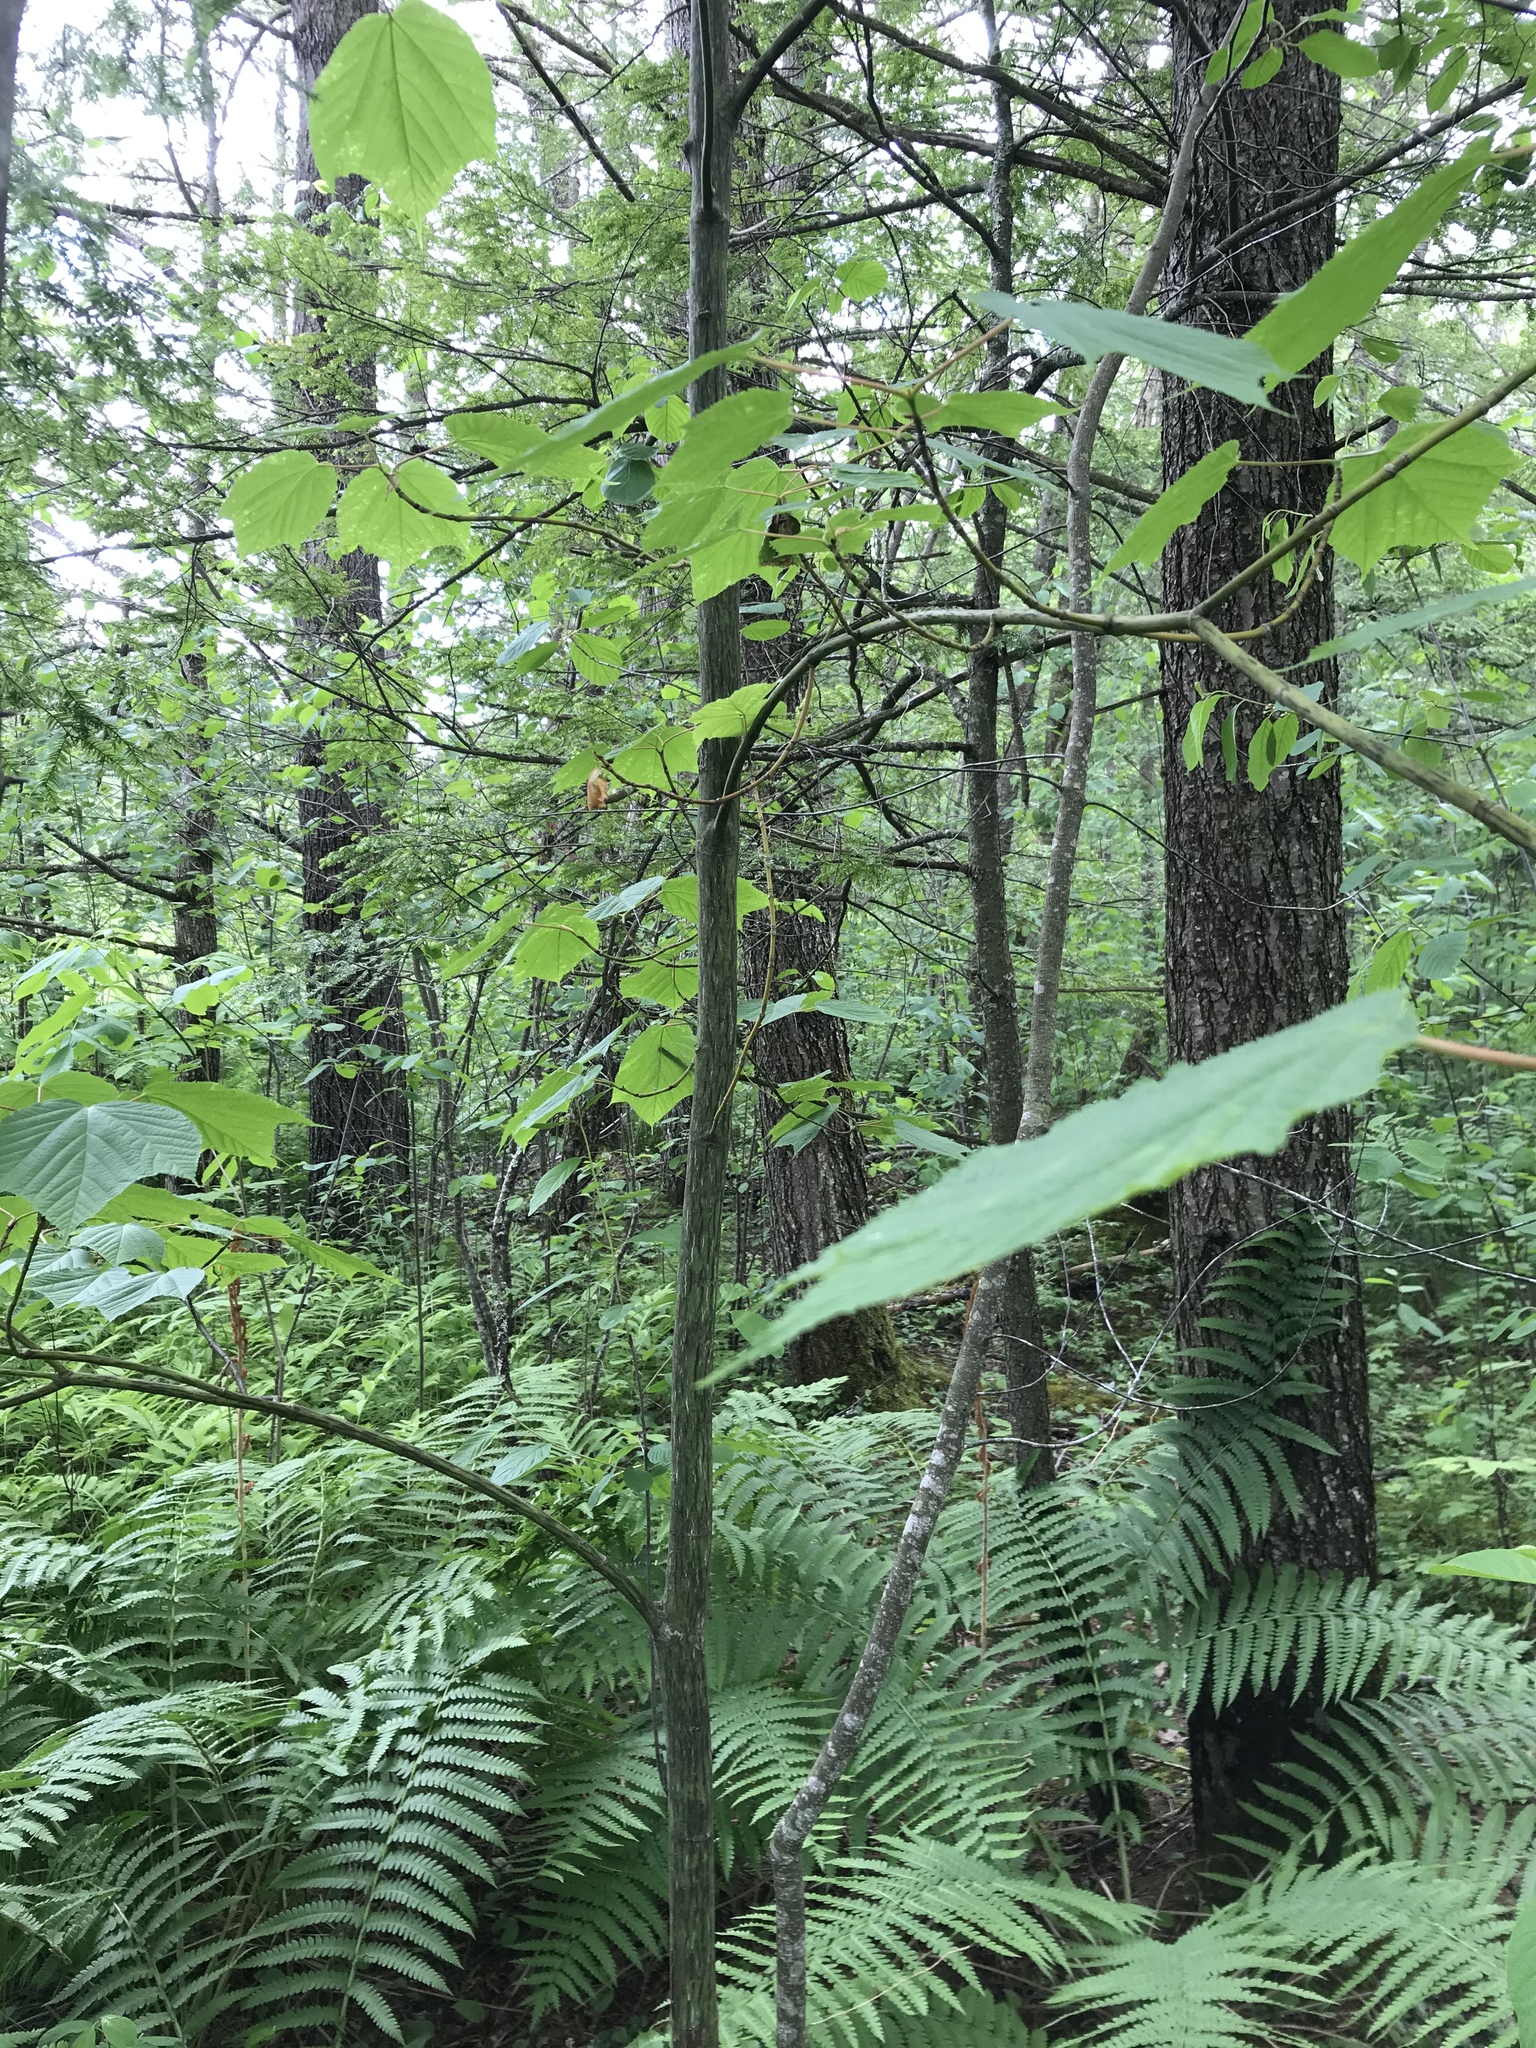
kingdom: Plantae
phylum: Tracheophyta
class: Magnoliopsida
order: Sapindales
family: Sapindaceae
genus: Acer
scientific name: Acer pensylvanicum
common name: Moosewood
